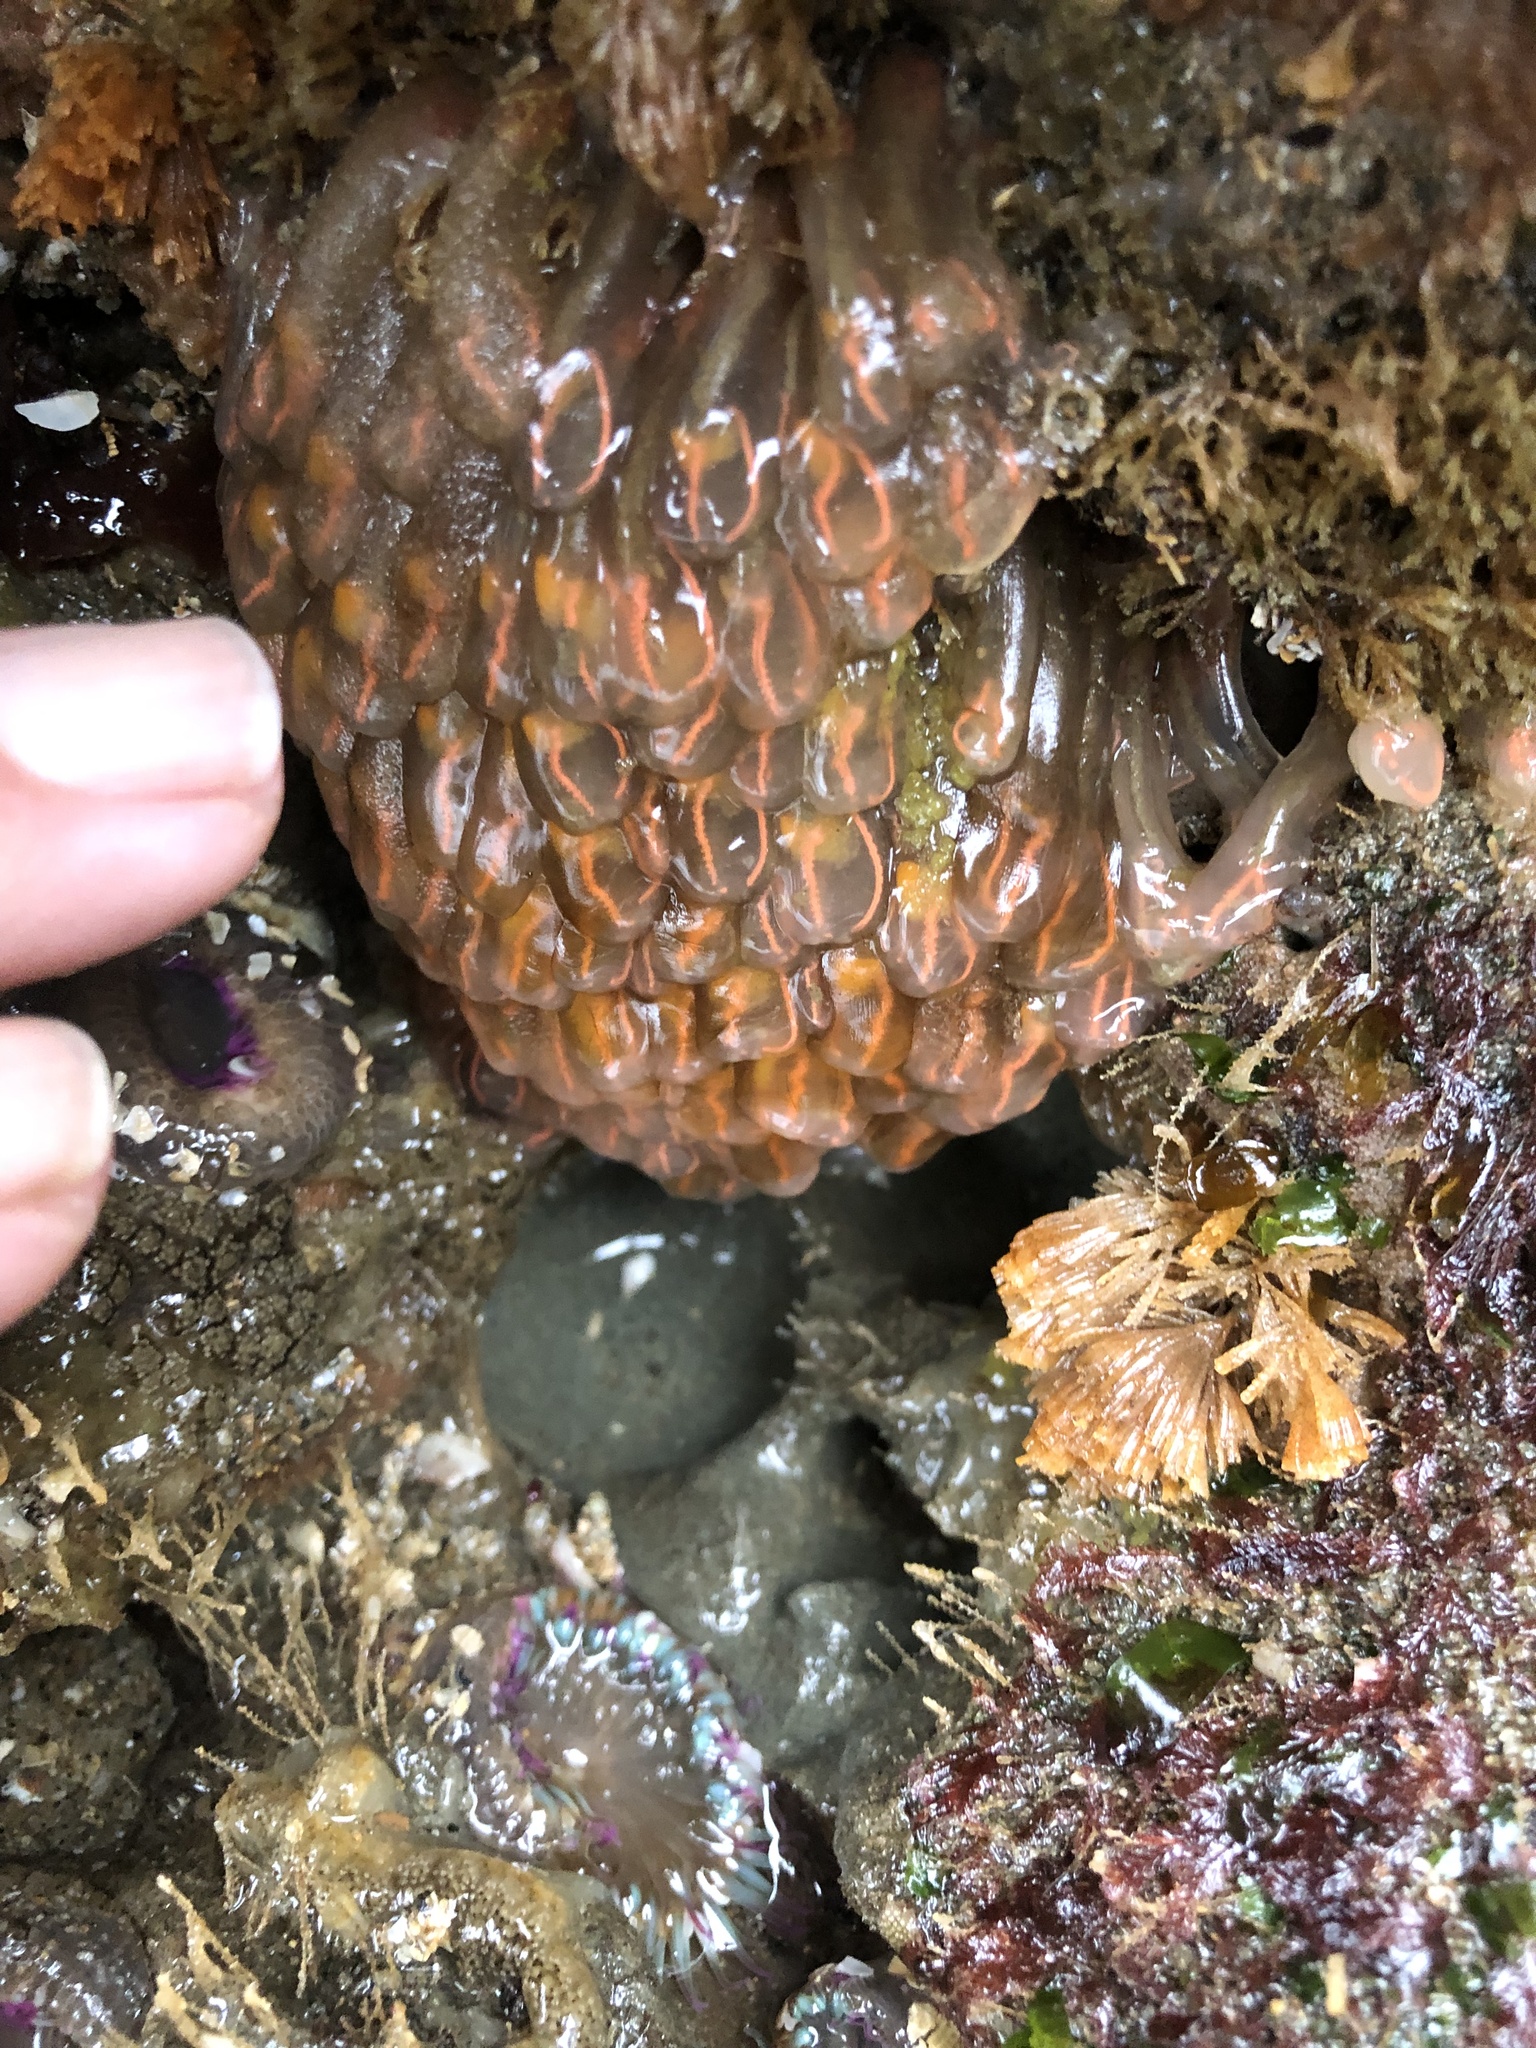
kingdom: Animalia
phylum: Chordata
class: Ascidiacea
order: Aplousobranchia
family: Clavelinidae
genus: Clavelina
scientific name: Clavelina huntsmani
